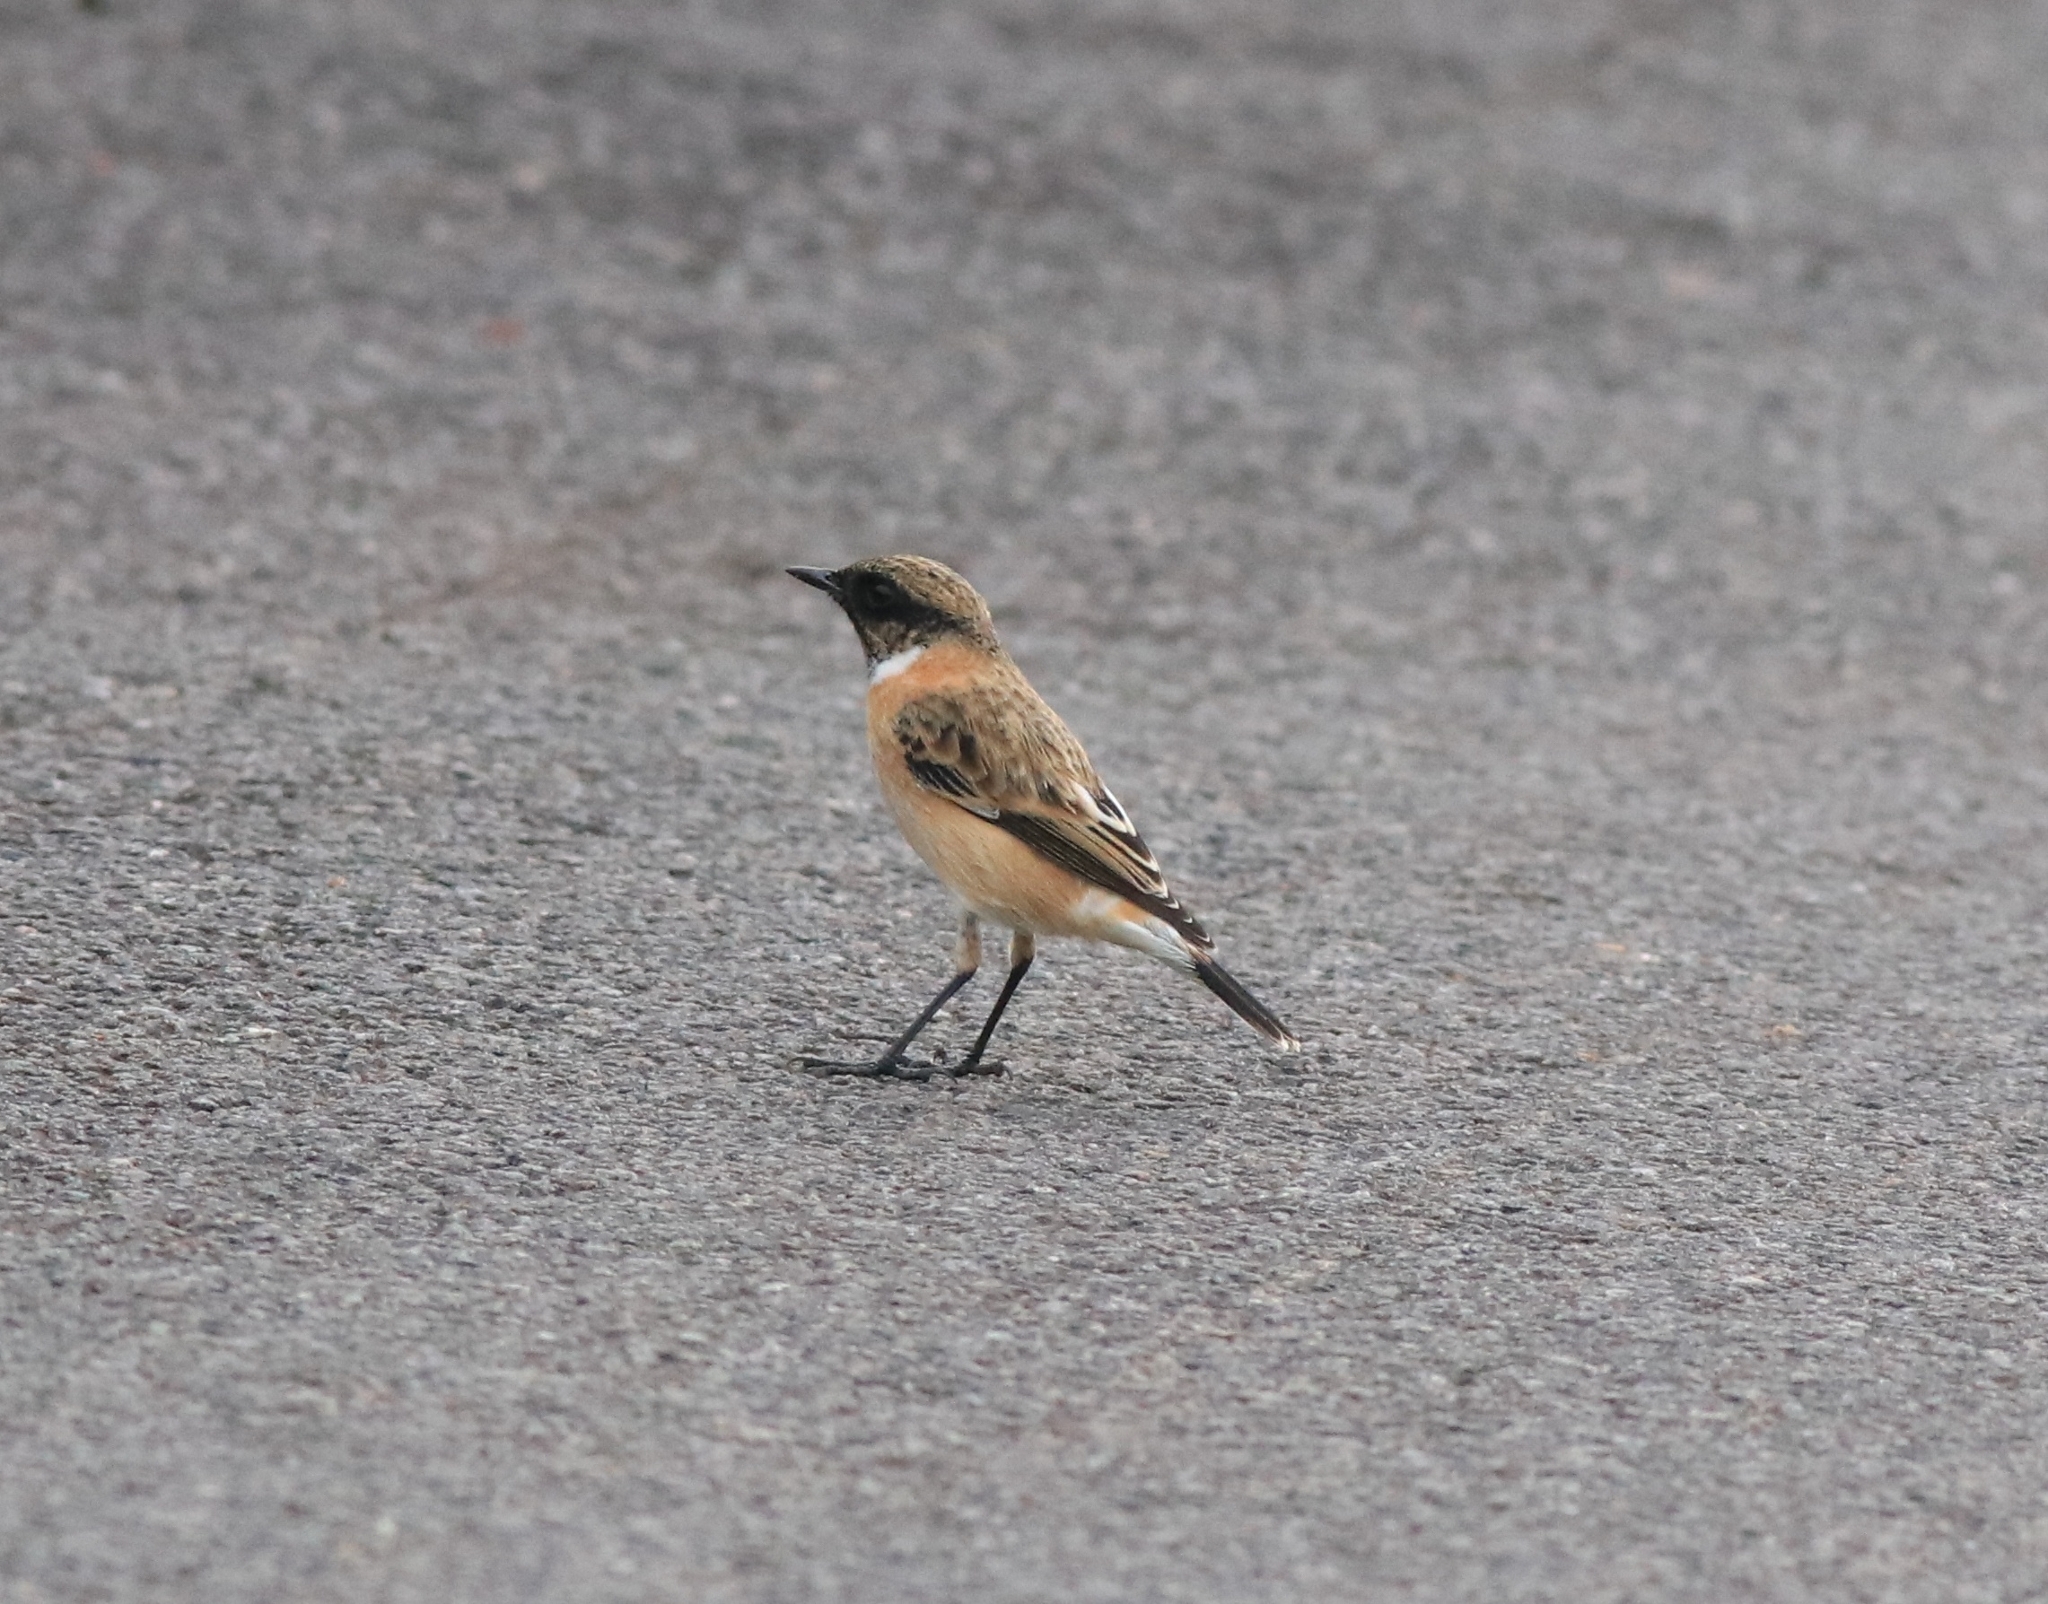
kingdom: Animalia
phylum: Chordata
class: Aves
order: Passeriformes
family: Muscicapidae
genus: Saxicola
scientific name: Saxicola maurus
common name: Siberian stonechat
